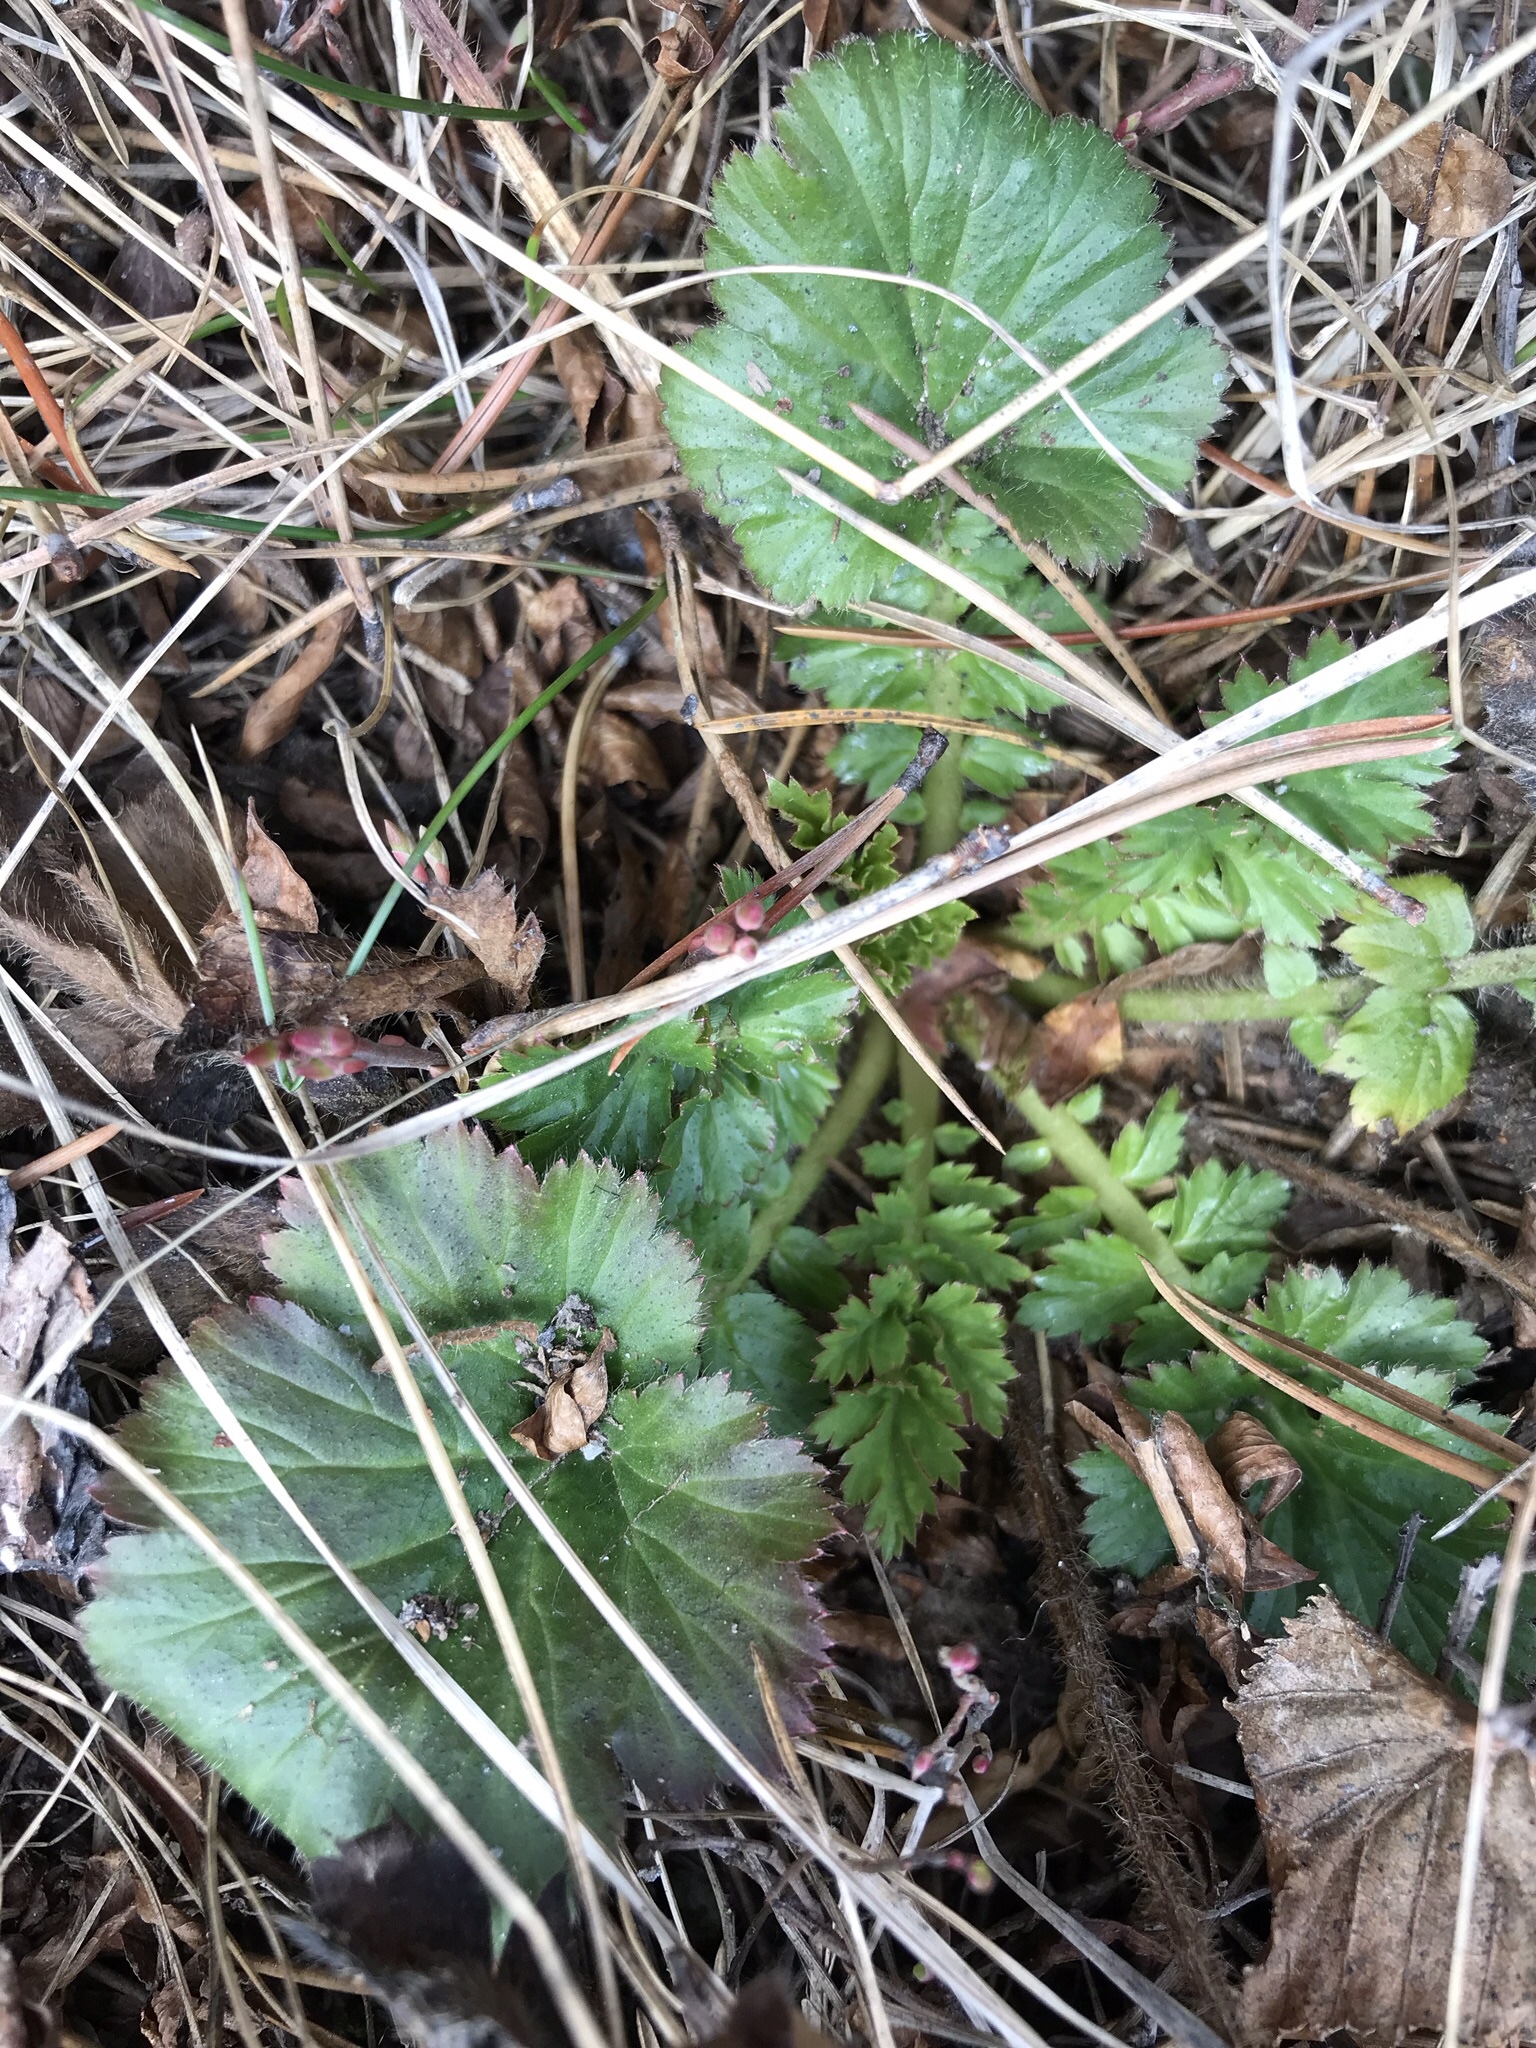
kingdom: Plantae
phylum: Tracheophyta
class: Magnoliopsida
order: Rosales
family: Rosaceae
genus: Geum
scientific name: Geum macrophyllum
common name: Large-leaved avens
